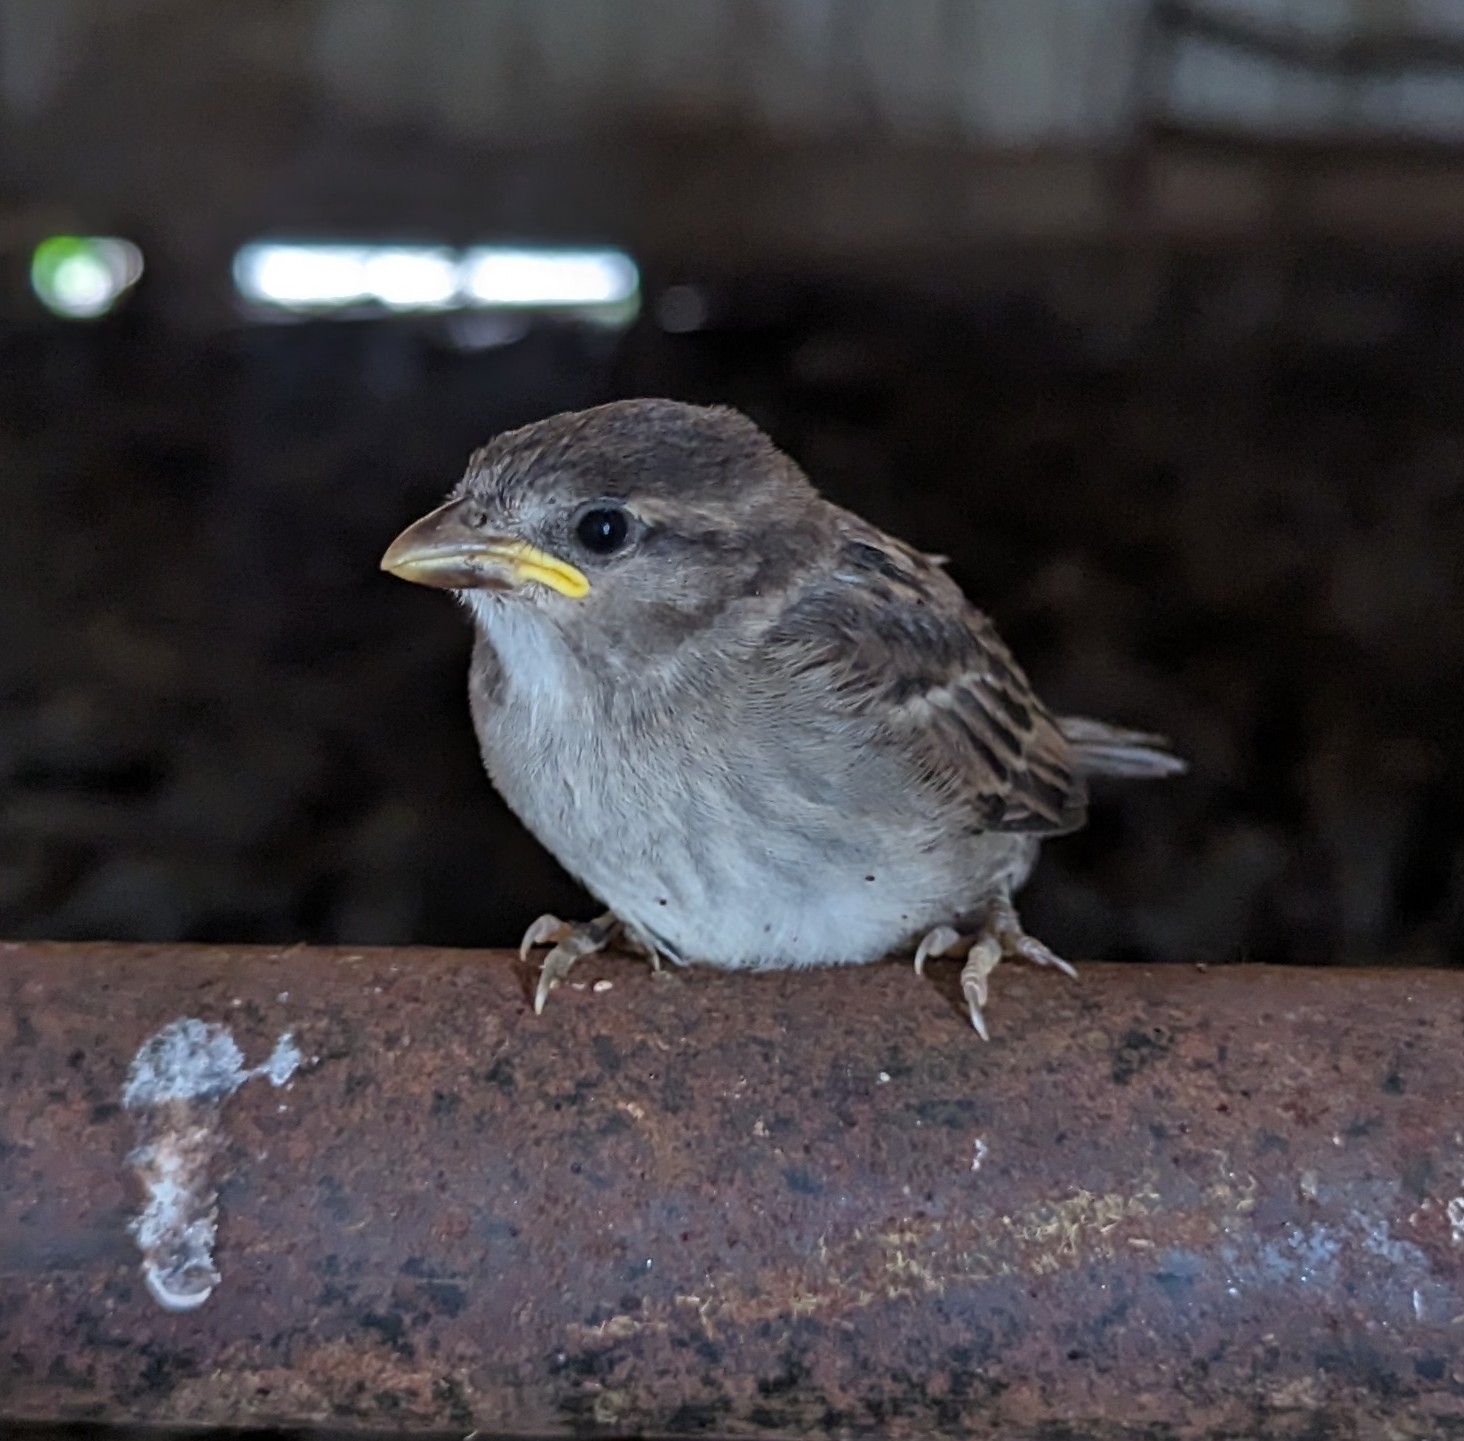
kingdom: Animalia
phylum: Chordata
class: Aves
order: Passeriformes
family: Passeridae
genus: Passer
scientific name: Passer domesticus
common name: House sparrow
